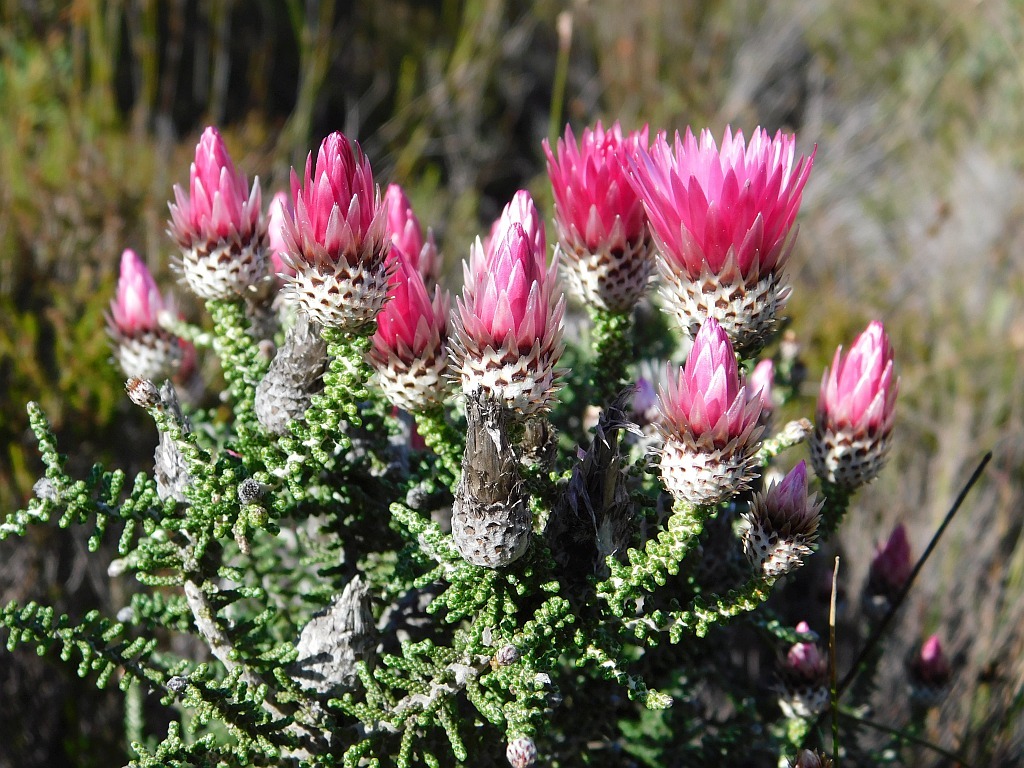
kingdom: Plantae
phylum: Tracheophyta
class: Magnoliopsida
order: Asterales
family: Asteraceae
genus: Phaenocoma
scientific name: Phaenocoma prolifera
